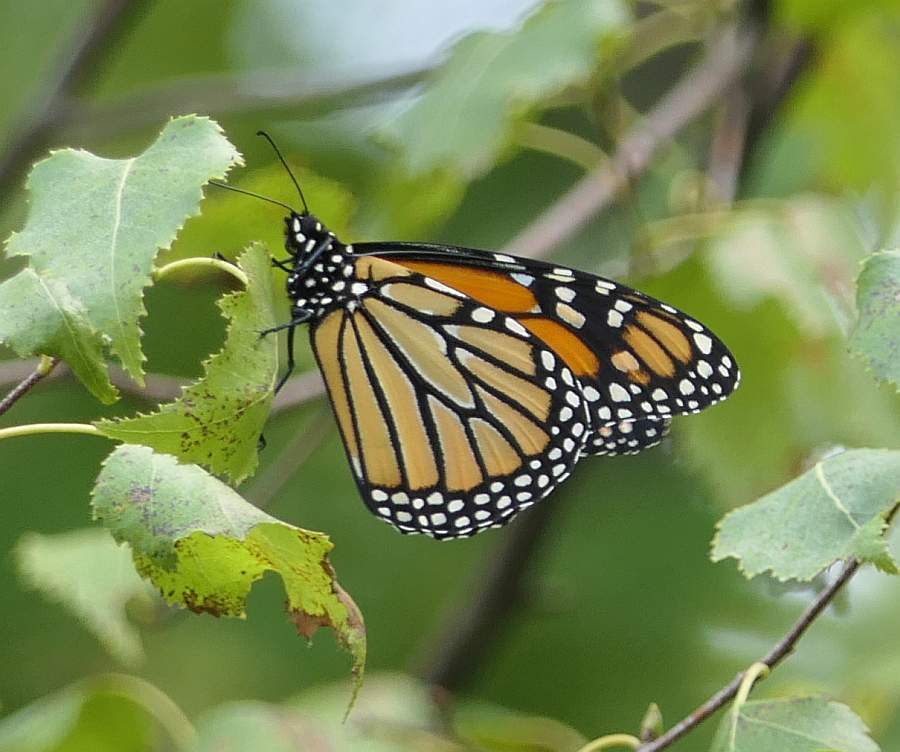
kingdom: Animalia
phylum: Arthropoda
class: Insecta
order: Lepidoptera
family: Nymphalidae
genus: Danaus
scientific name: Danaus plexippus
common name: Monarch
